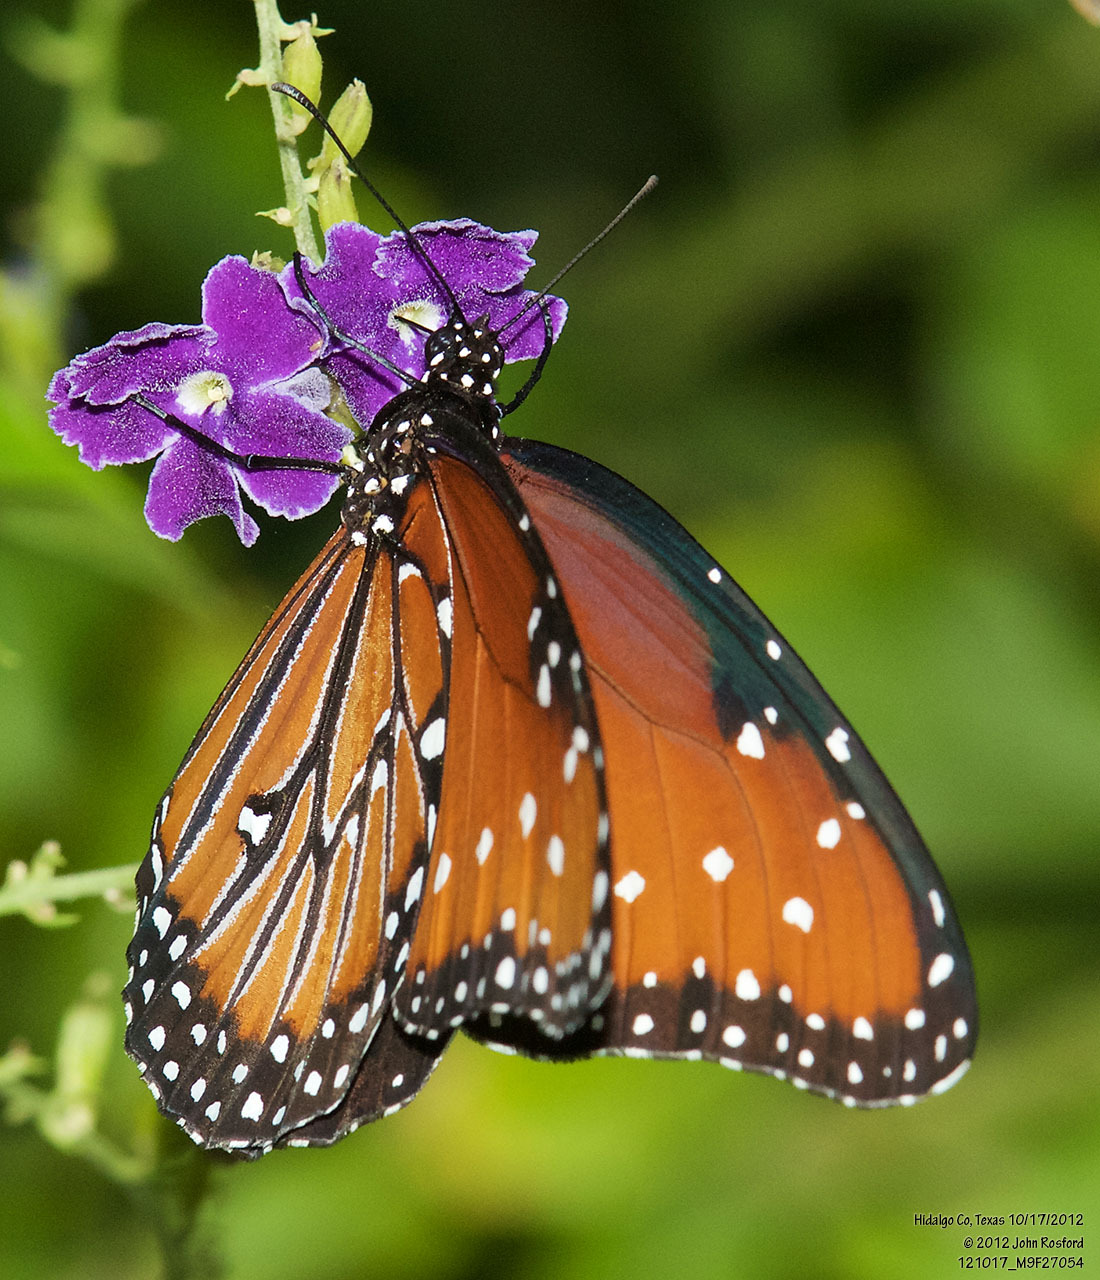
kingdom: Animalia
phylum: Arthropoda
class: Insecta
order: Lepidoptera
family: Nymphalidae
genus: Danaus
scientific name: Danaus gilippus
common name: Queen
